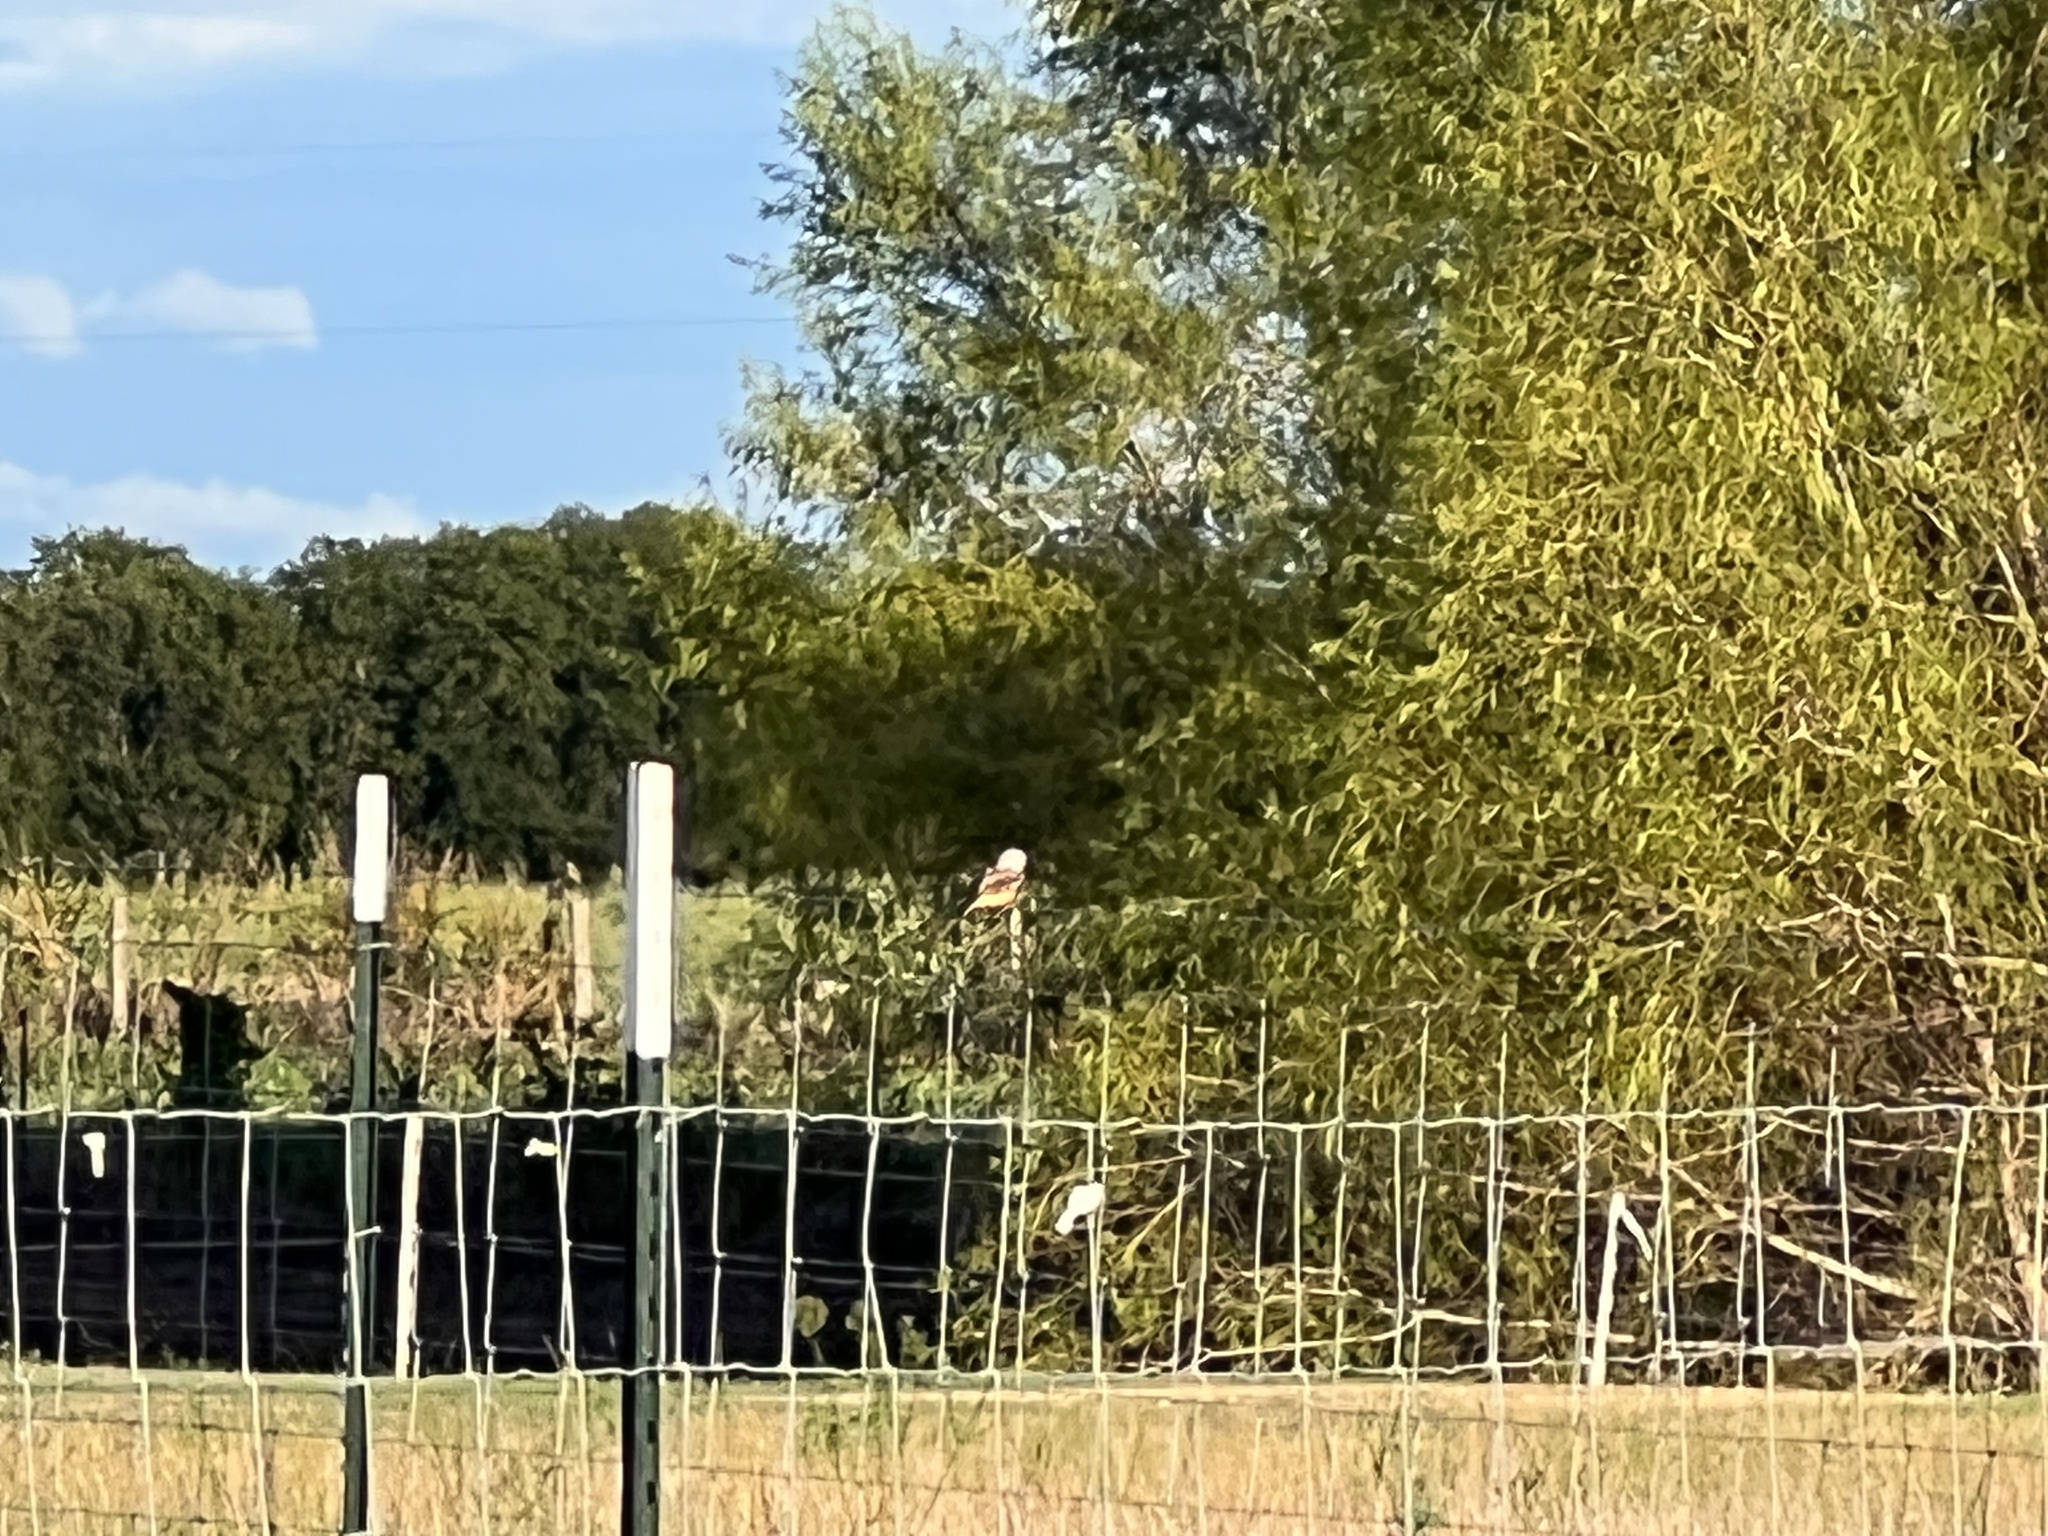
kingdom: Animalia
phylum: Chordata
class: Aves
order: Passeriformes
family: Tyrannidae
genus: Tyrannus
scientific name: Tyrannus forficatus
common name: Scissor-tailed flycatcher
